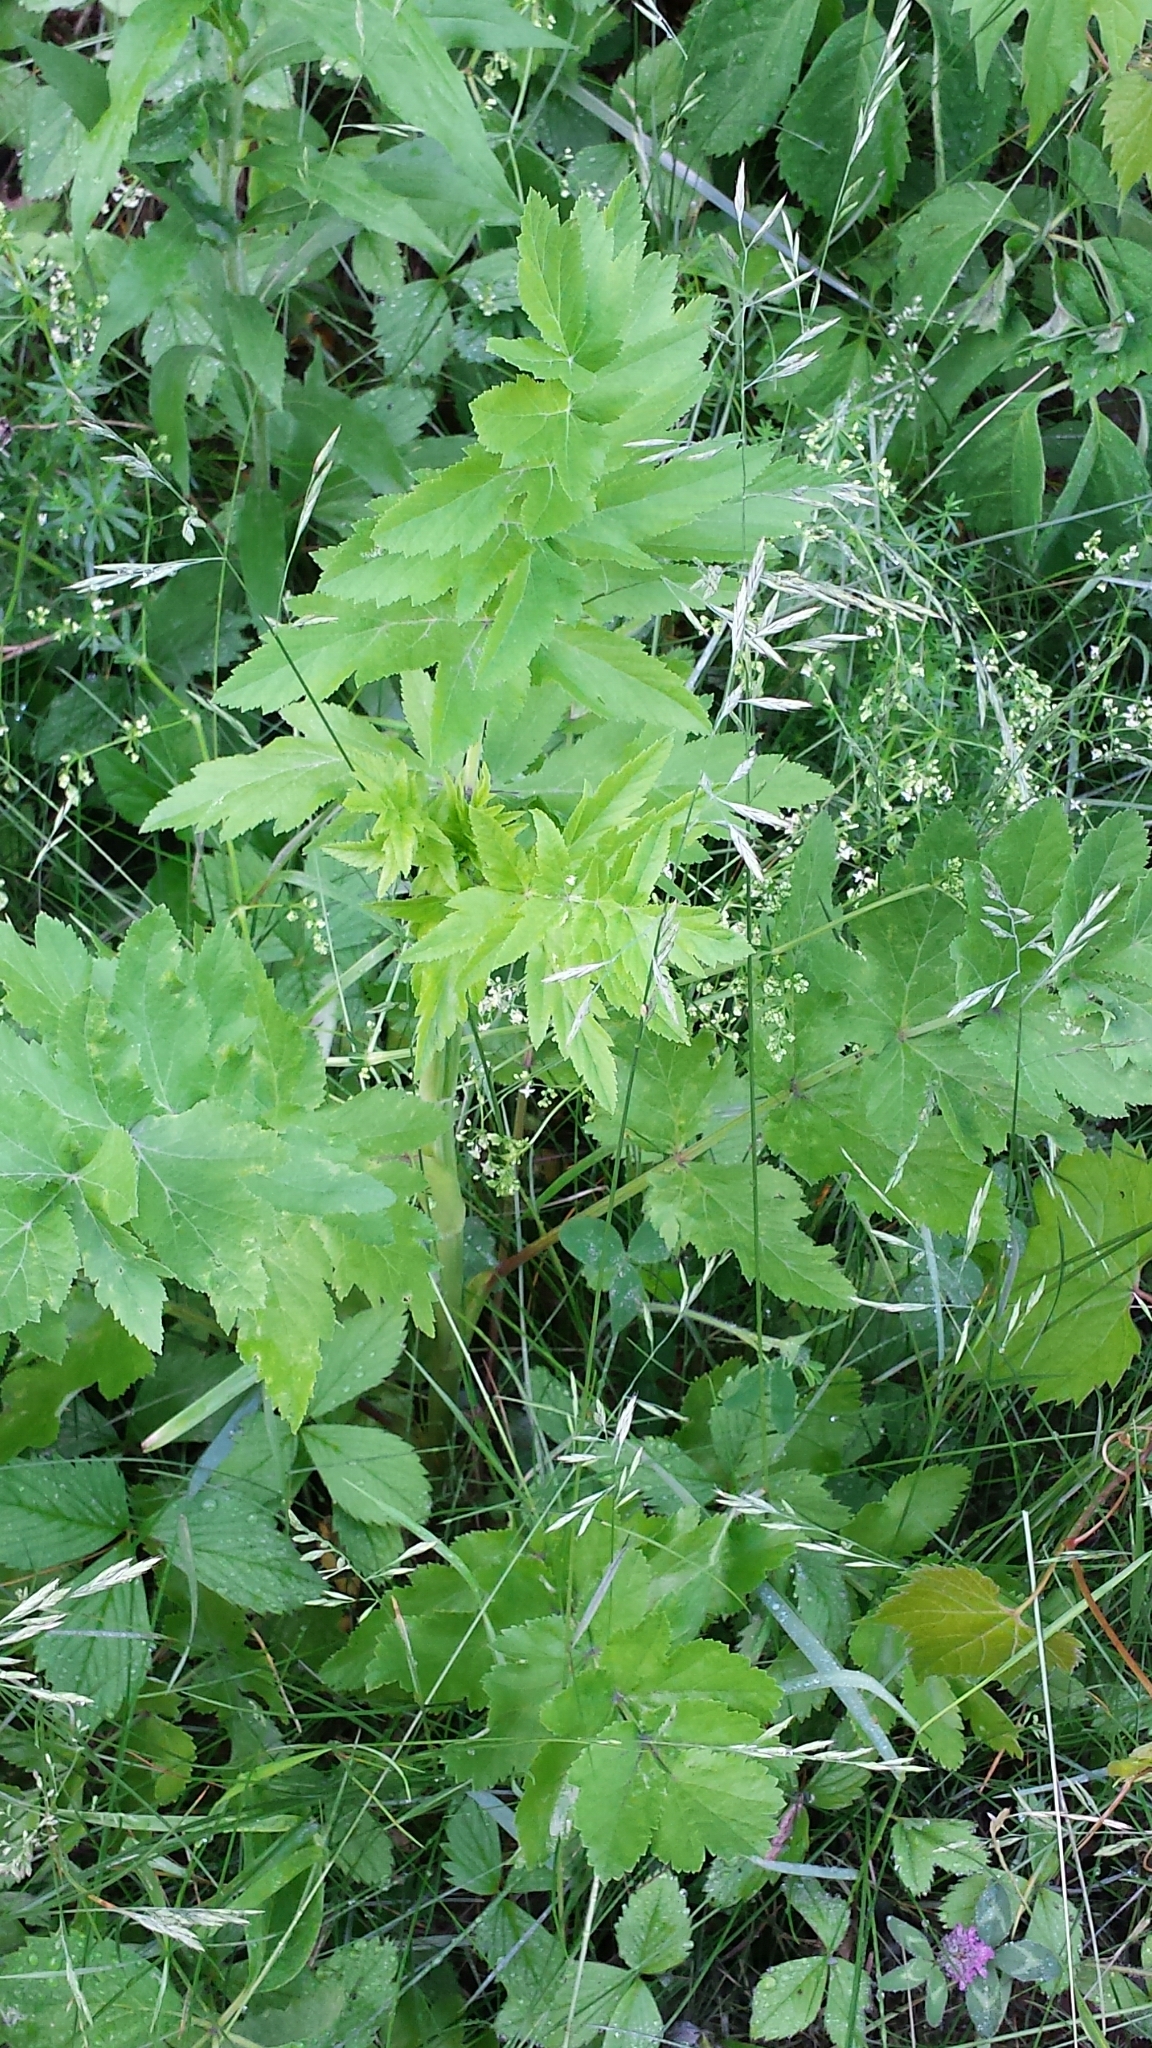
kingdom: Plantae
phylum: Tracheophyta
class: Magnoliopsida
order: Apiales
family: Apiaceae
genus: Pastinaca
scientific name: Pastinaca sativa
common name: Wild parsnip
